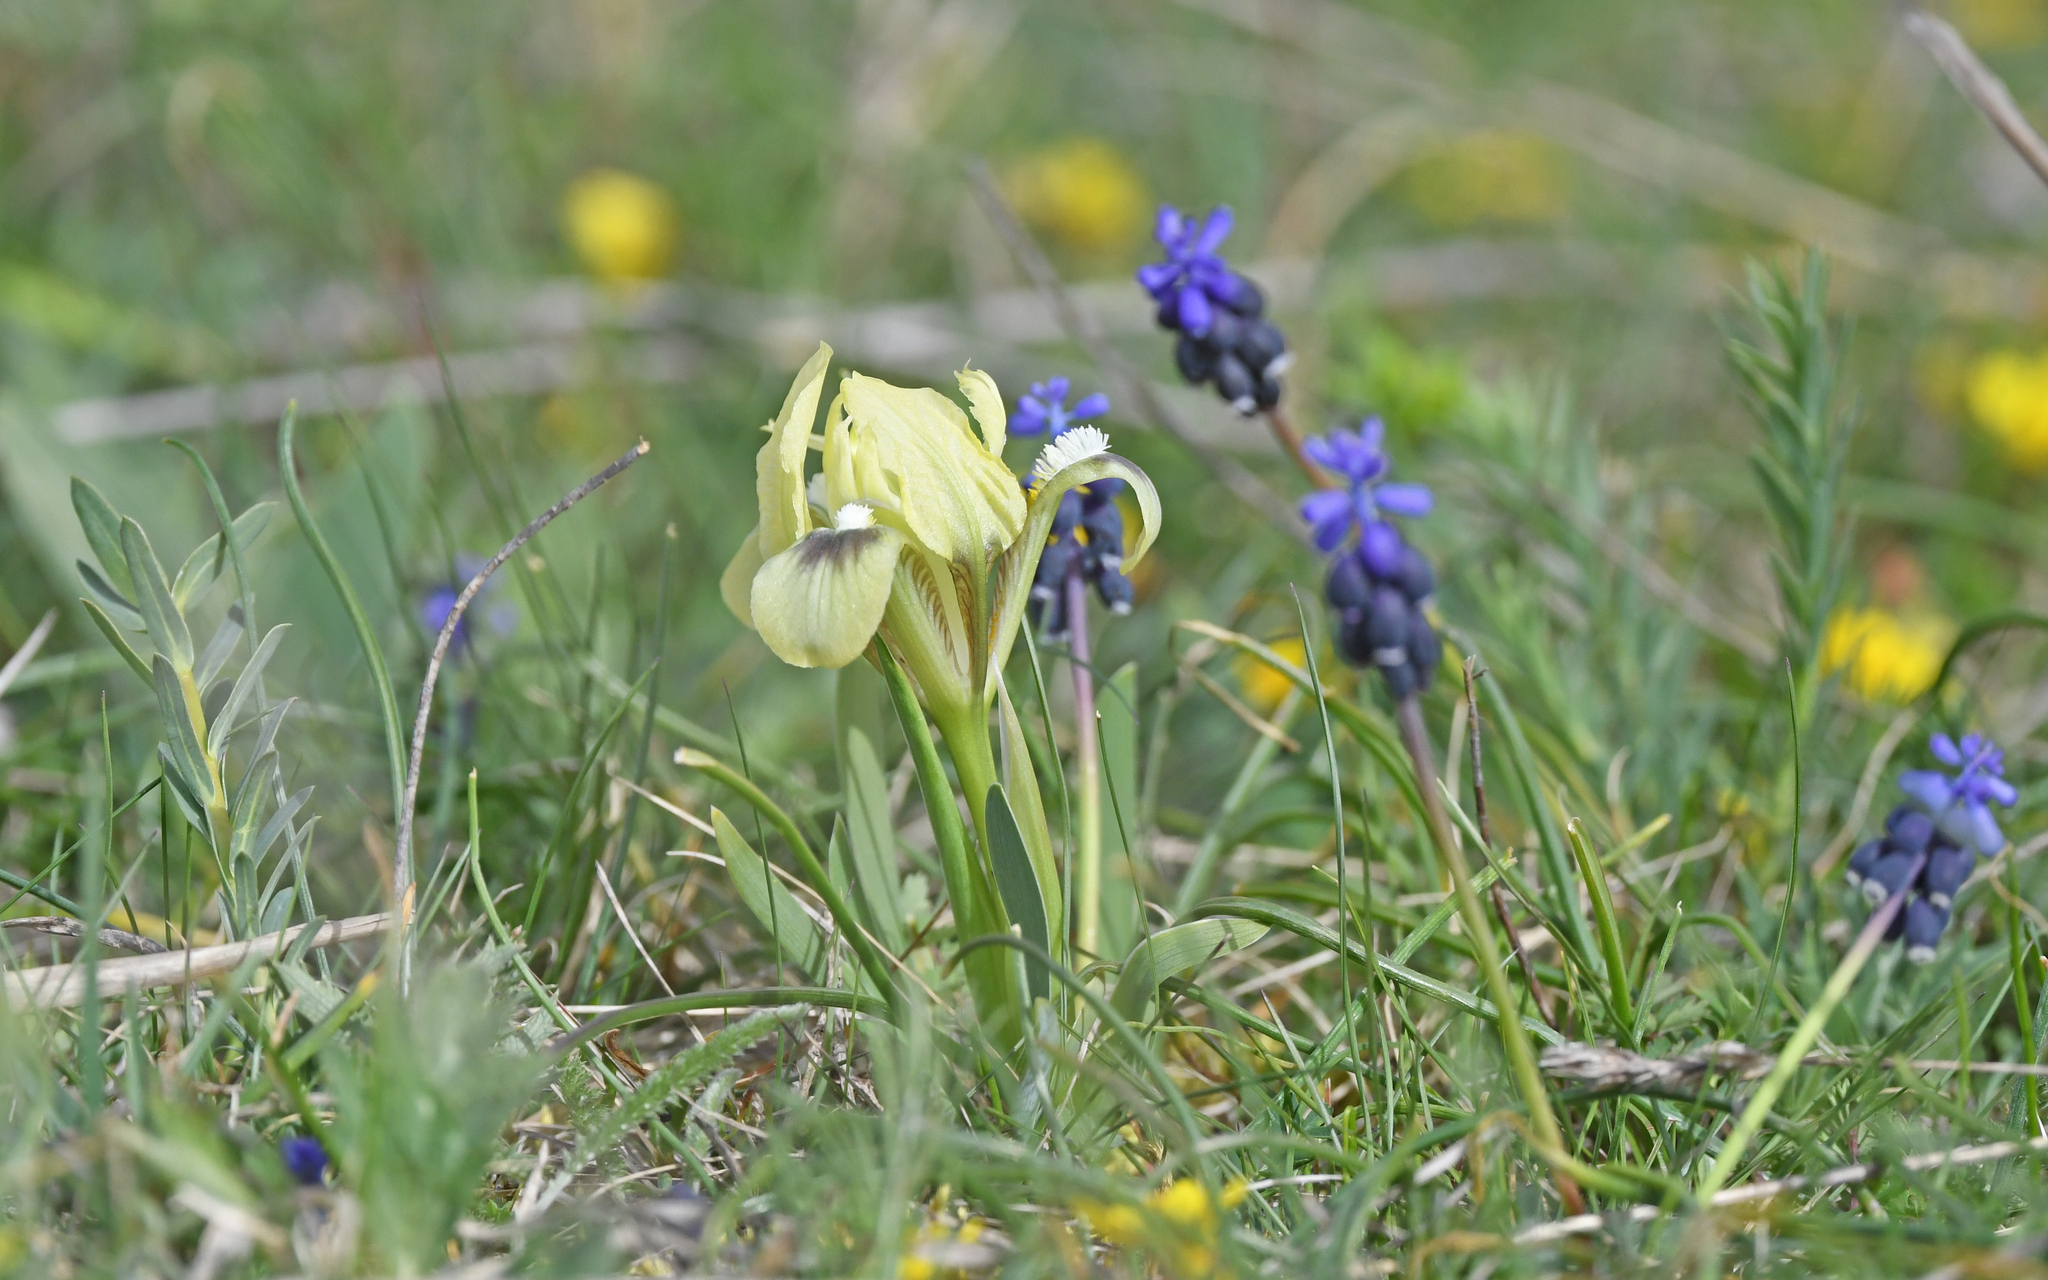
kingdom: Plantae
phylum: Tracheophyta
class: Liliopsida
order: Asparagales
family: Iridaceae
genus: Iris
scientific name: Iris pumila
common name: Dwarf iris
